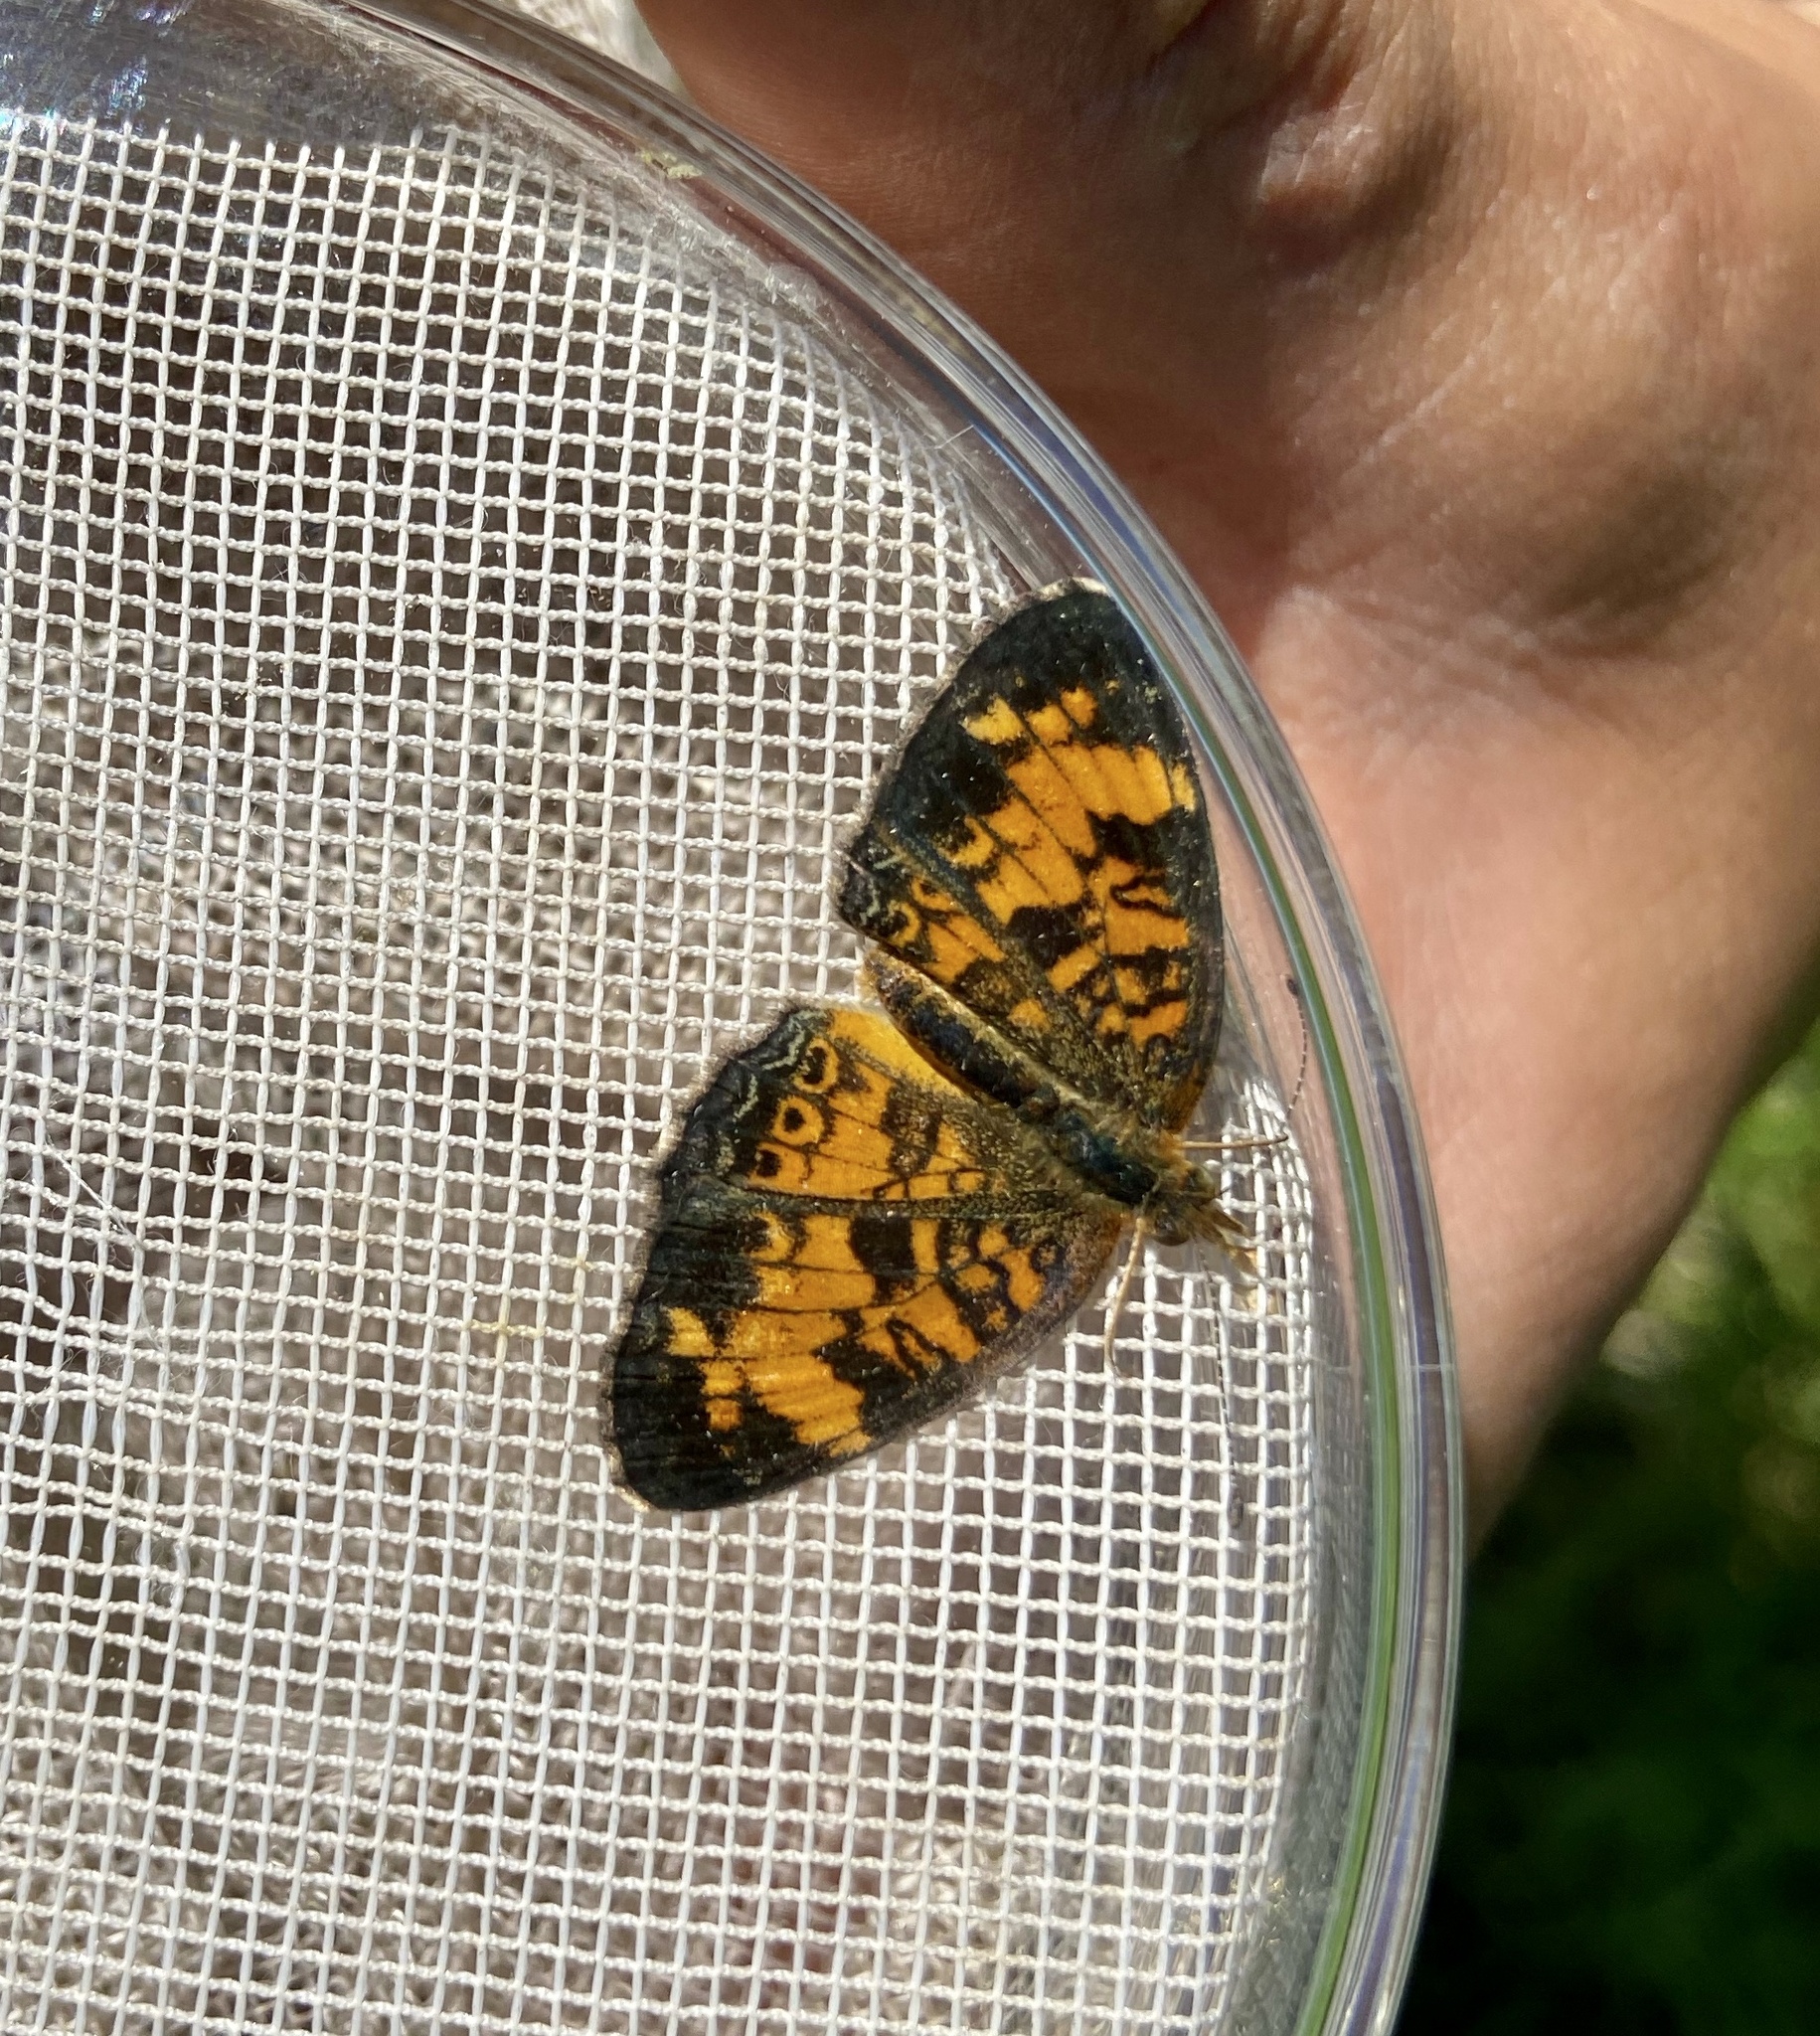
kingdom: Animalia
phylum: Arthropoda
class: Insecta
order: Lepidoptera
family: Nymphalidae
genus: Phyciodes
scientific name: Phyciodes tharos
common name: Pearl crescent
